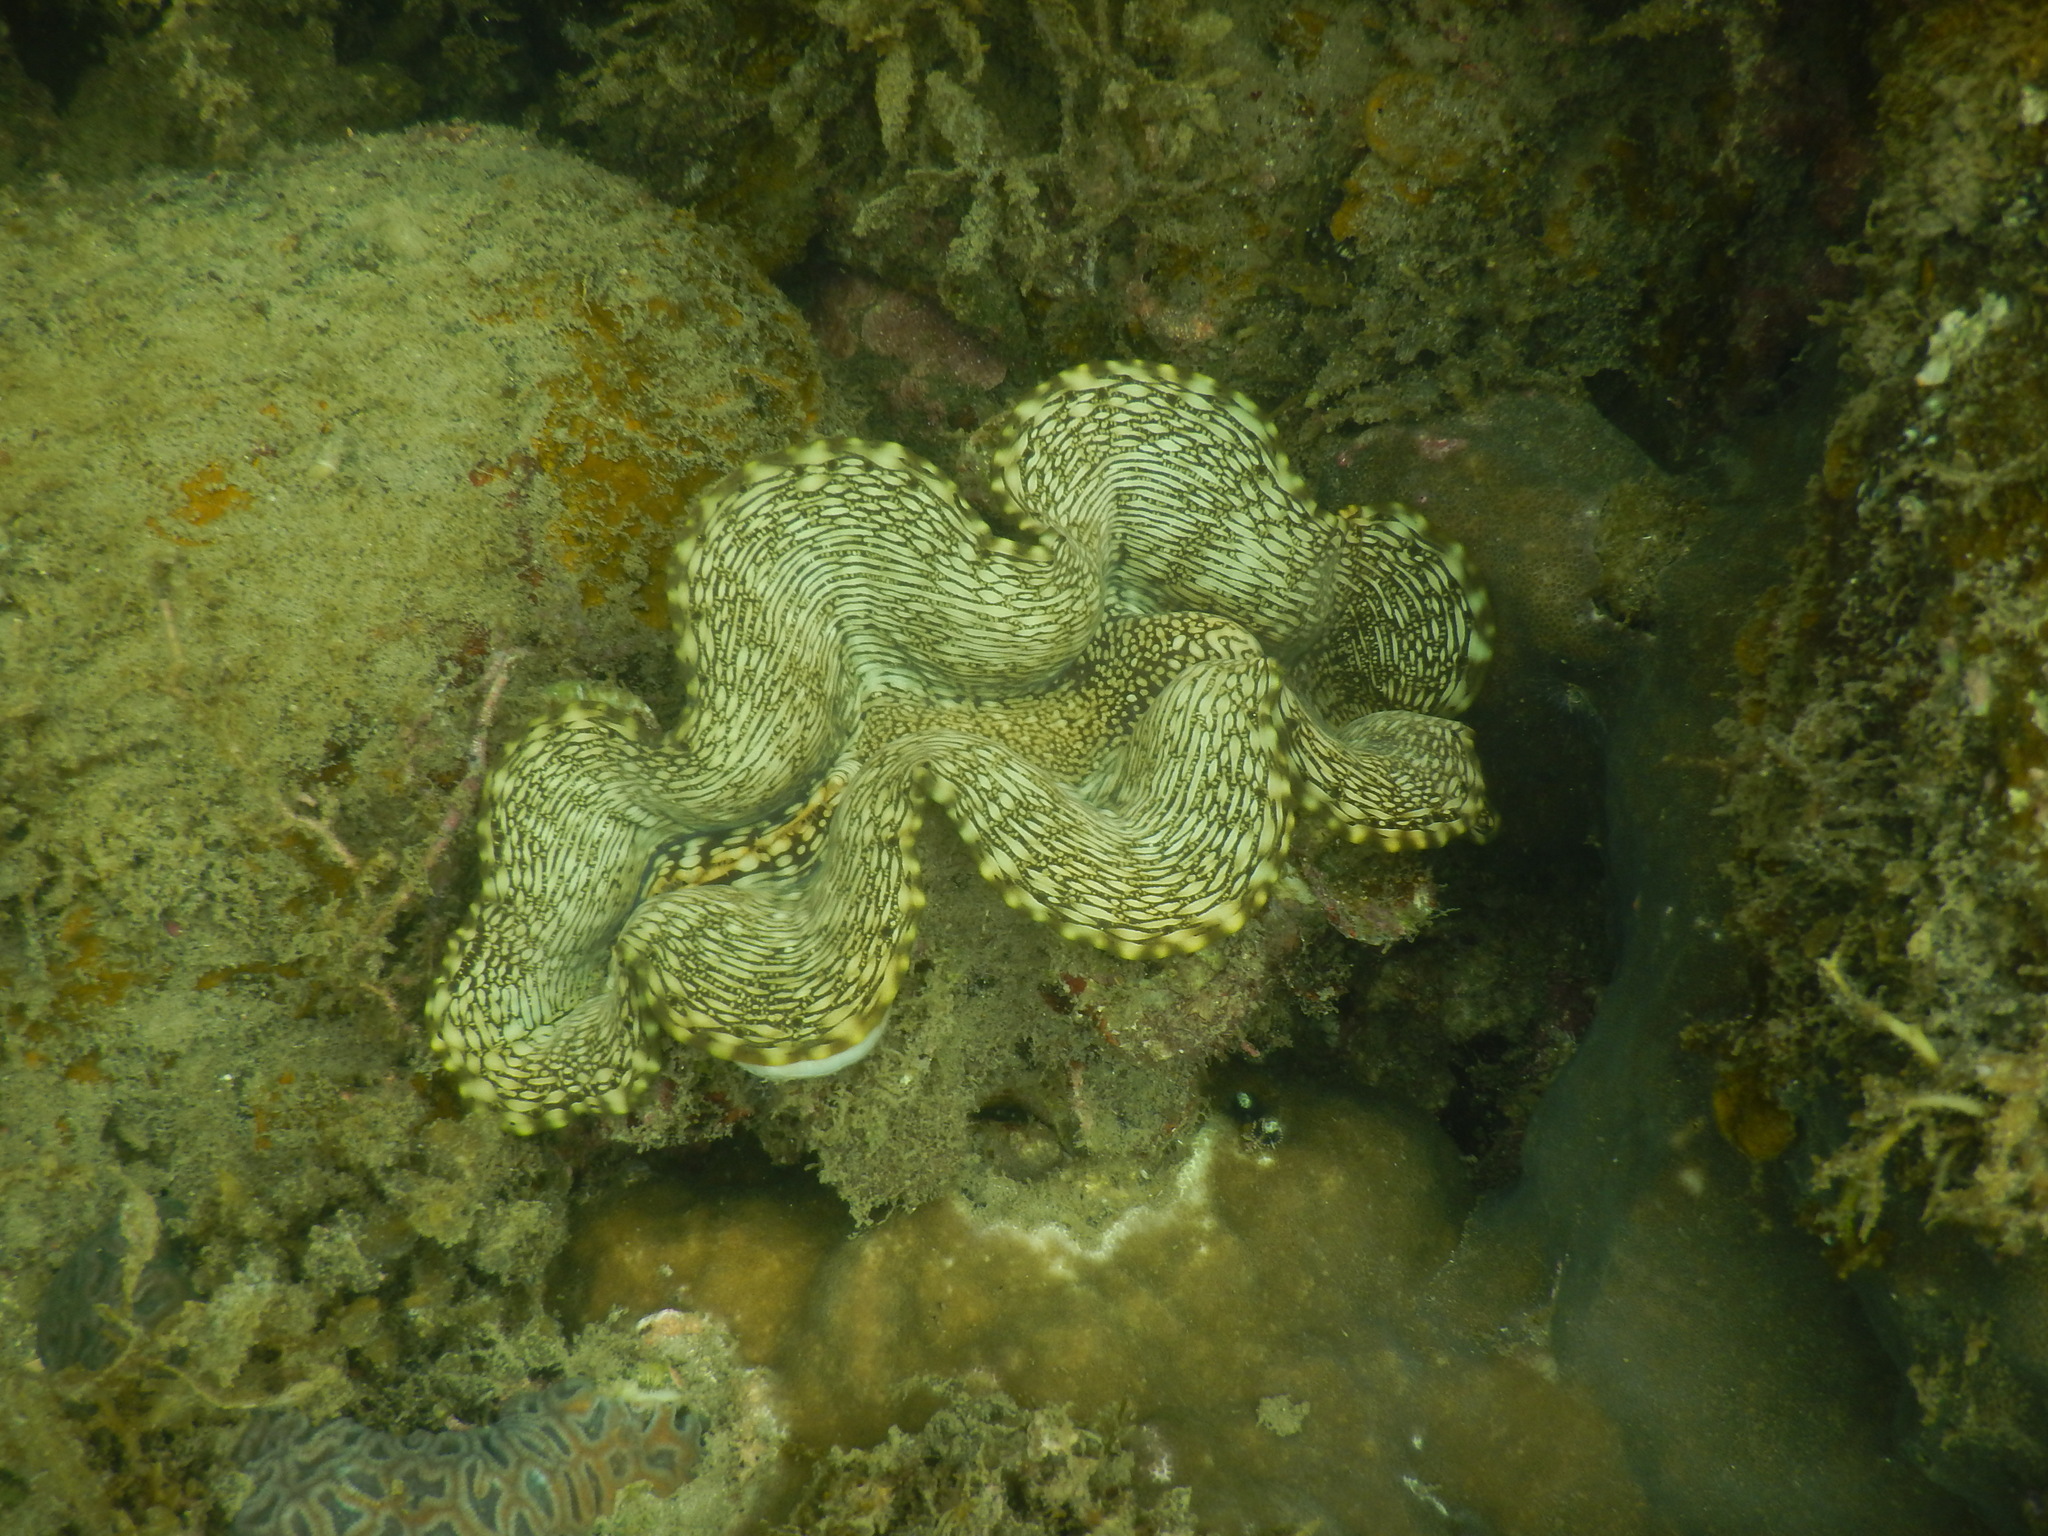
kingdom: Animalia
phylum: Mollusca
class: Bivalvia
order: Cardiida
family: Cardiidae
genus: Tridacna
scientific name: Tridacna squamosa
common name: Fluted clam
